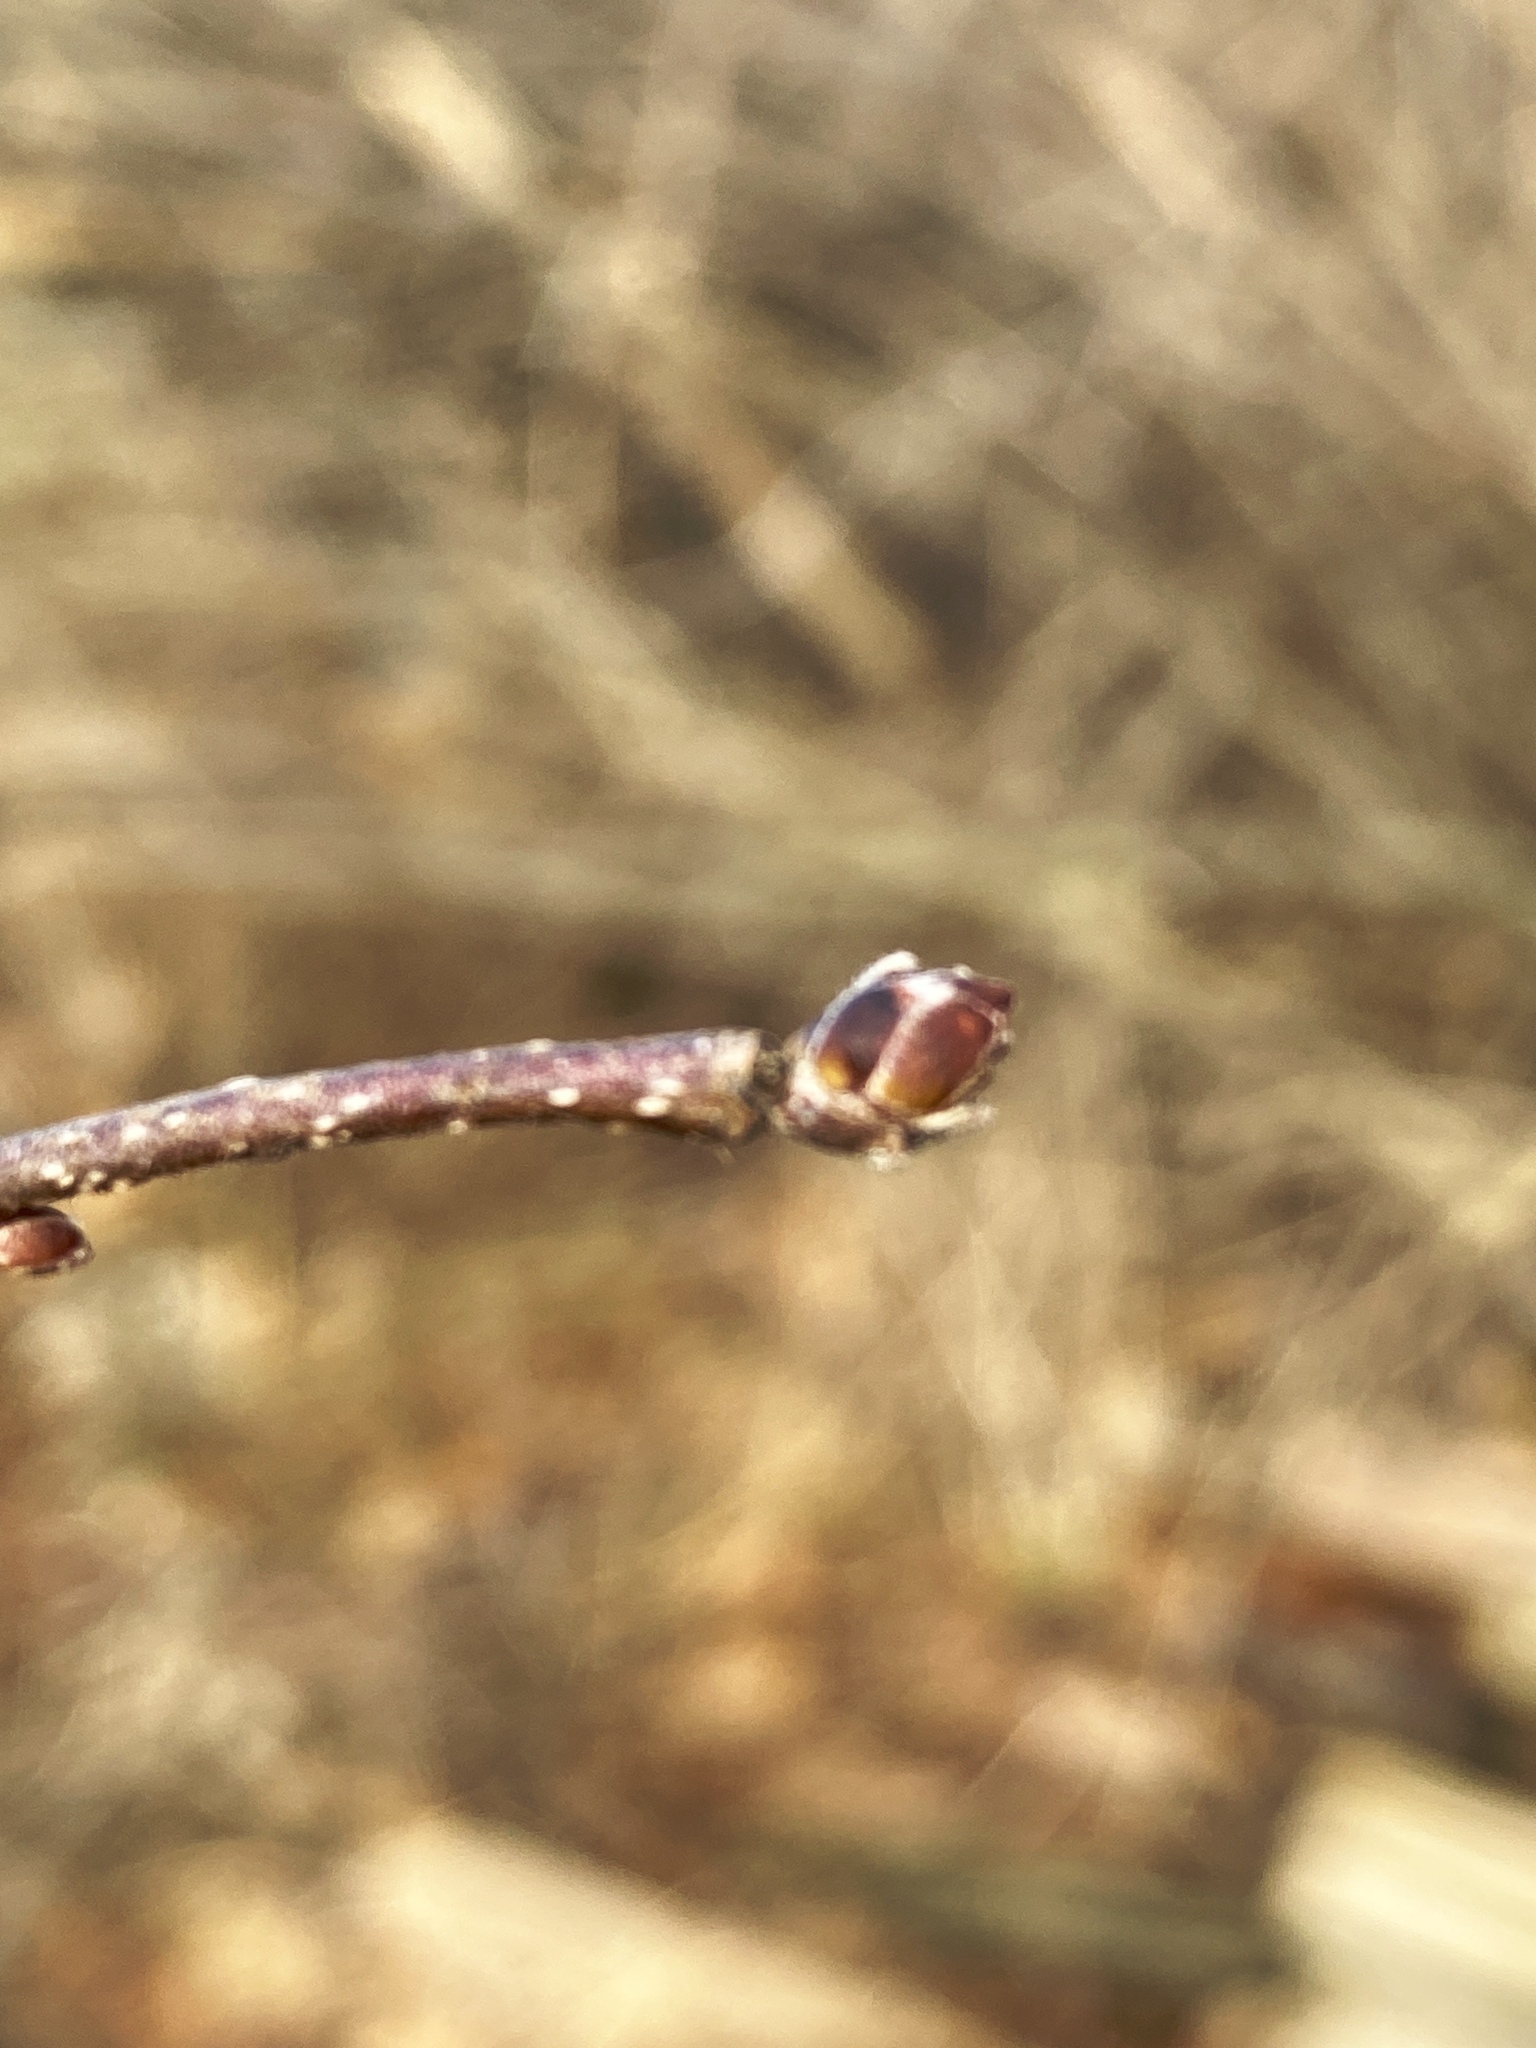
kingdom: Plantae
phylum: Tracheophyta
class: Magnoliopsida
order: Fagales
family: Betulaceae
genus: Corylus
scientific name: Corylus americana
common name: American hazel
